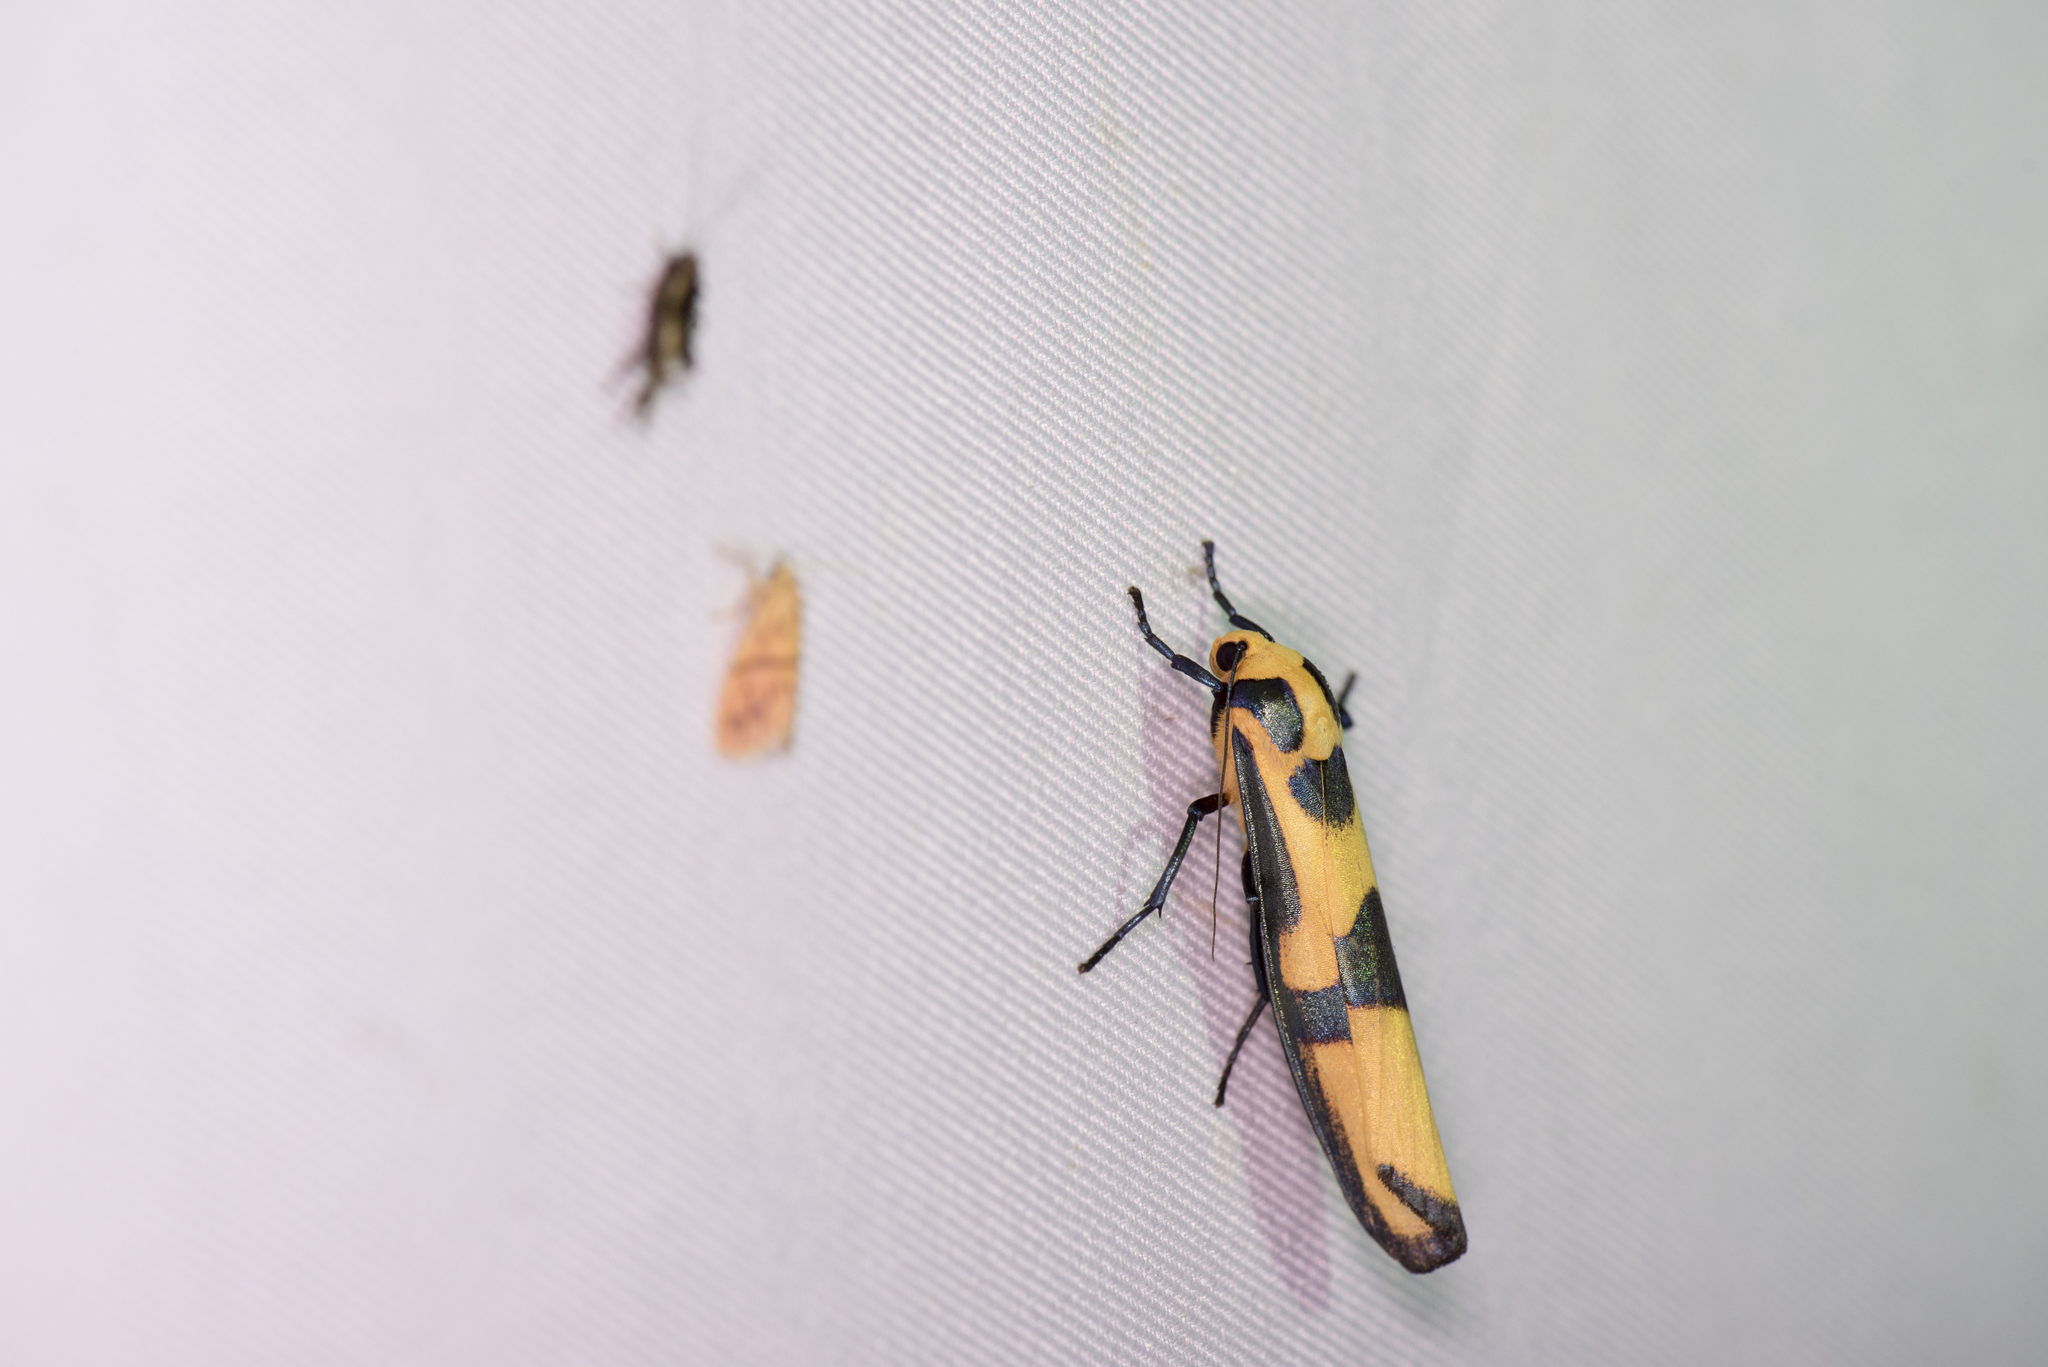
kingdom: Animalia
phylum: Arthropoda
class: Insecta
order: Lepidoptera
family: Erebidae
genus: Chrysaeglia
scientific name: Chrysaeglia magnifica
